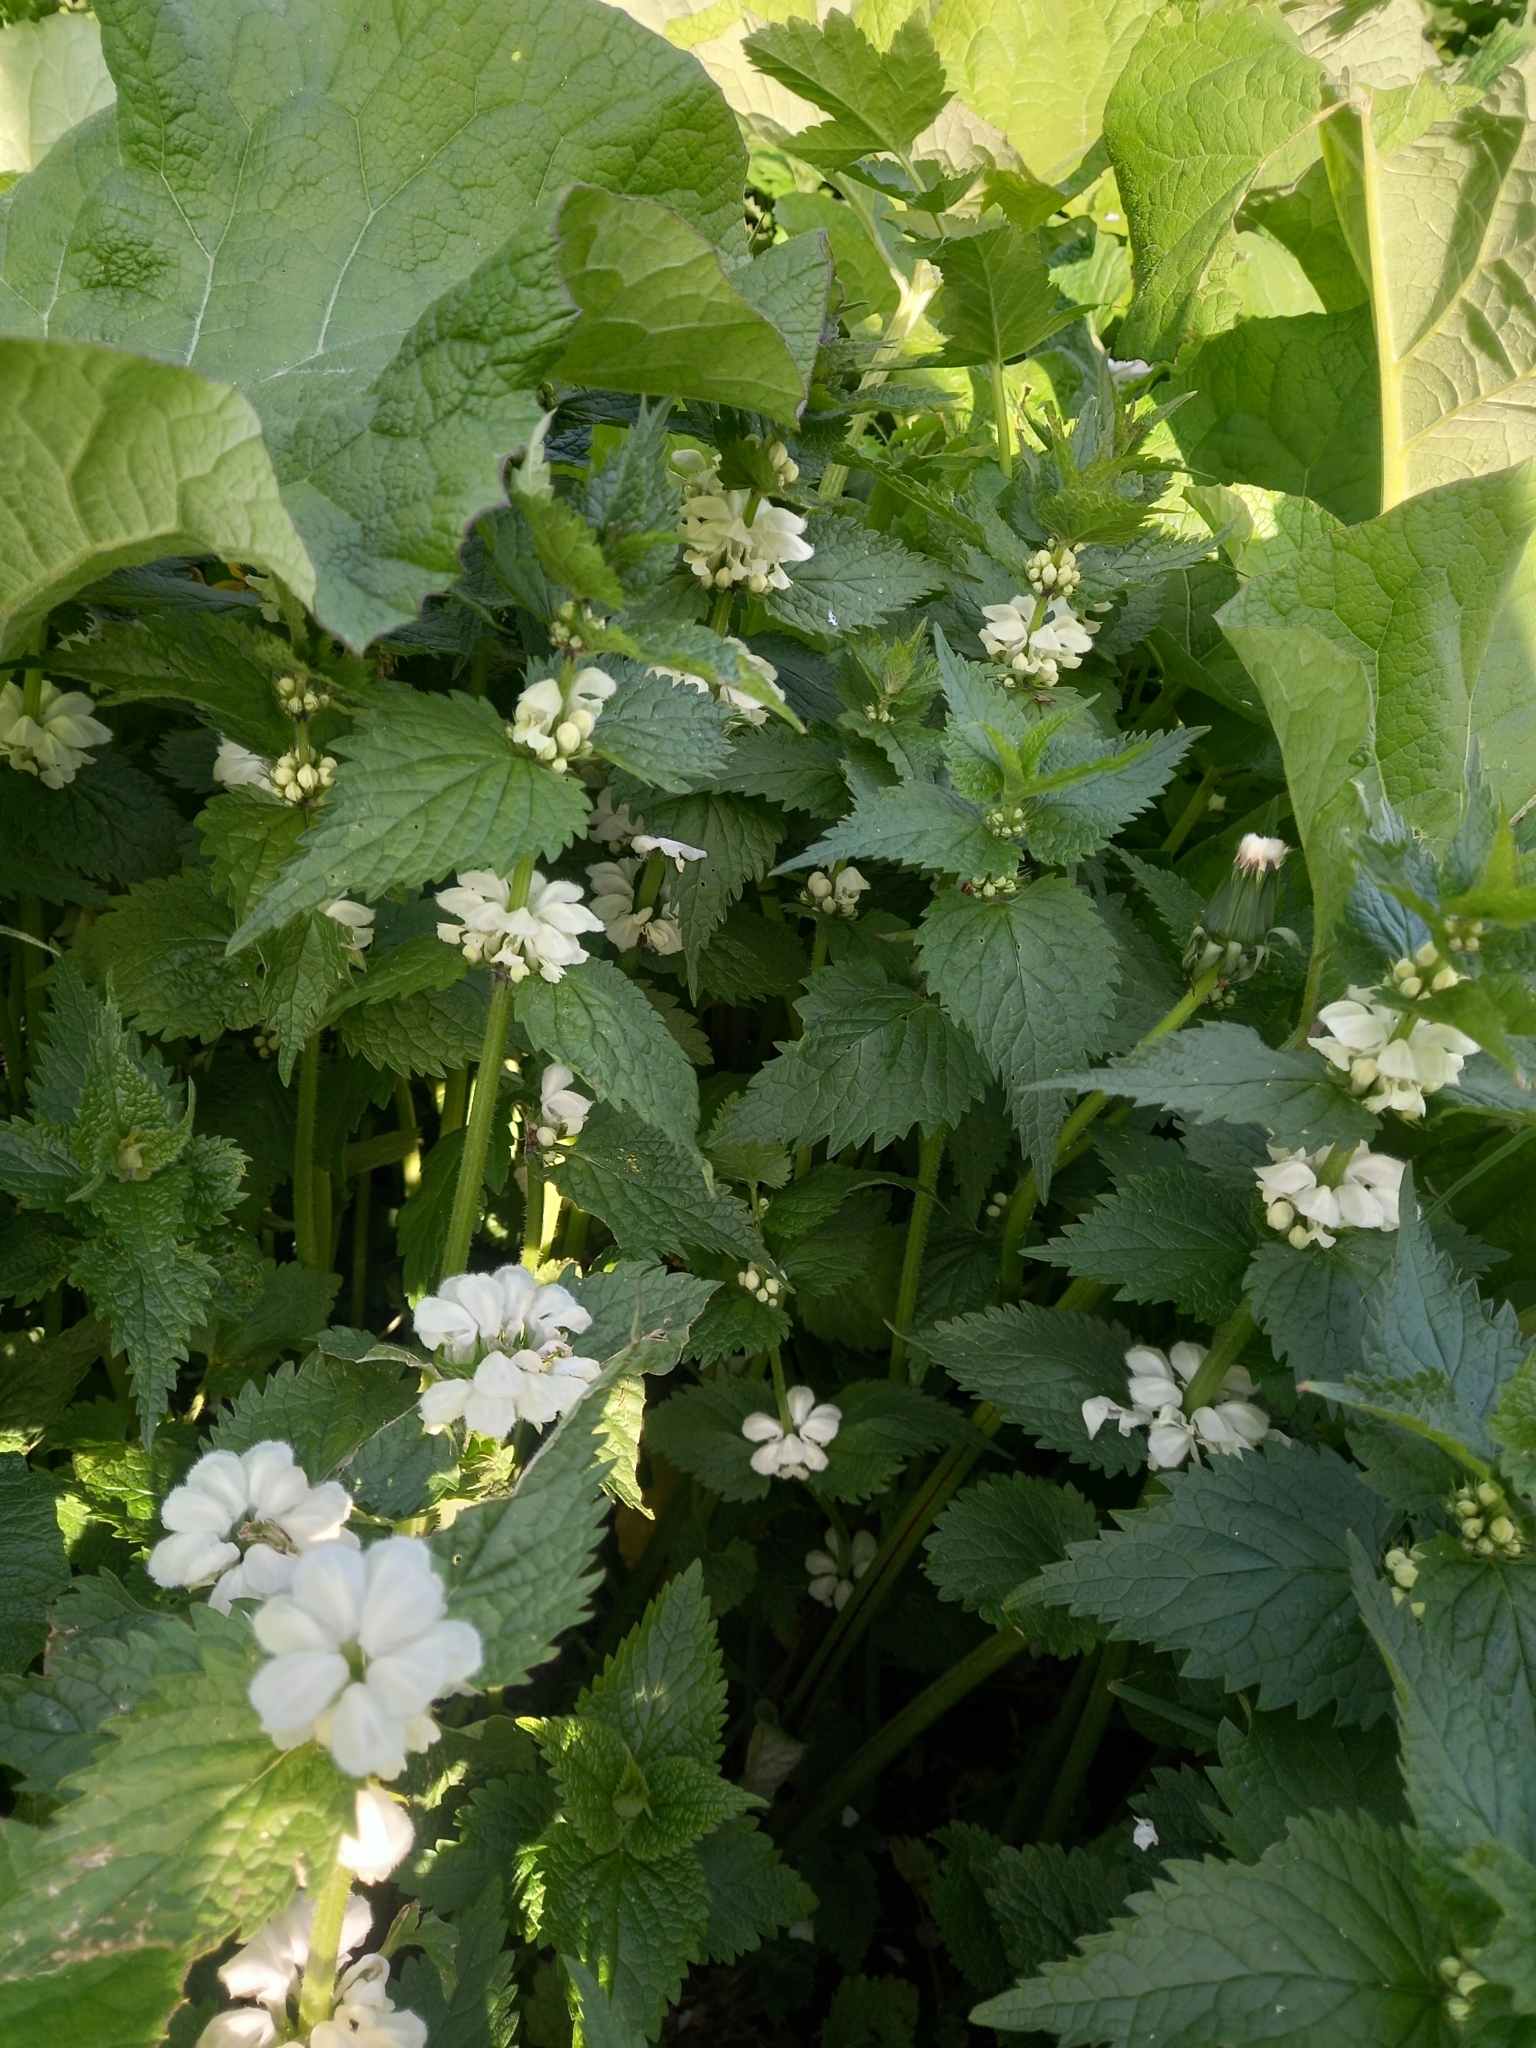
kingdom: Plantae
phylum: Tracheophyta
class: Magnoliopsida
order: Lamiales
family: Lamiaceae
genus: Lamium
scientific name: Lamium album
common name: White dead-nettle
